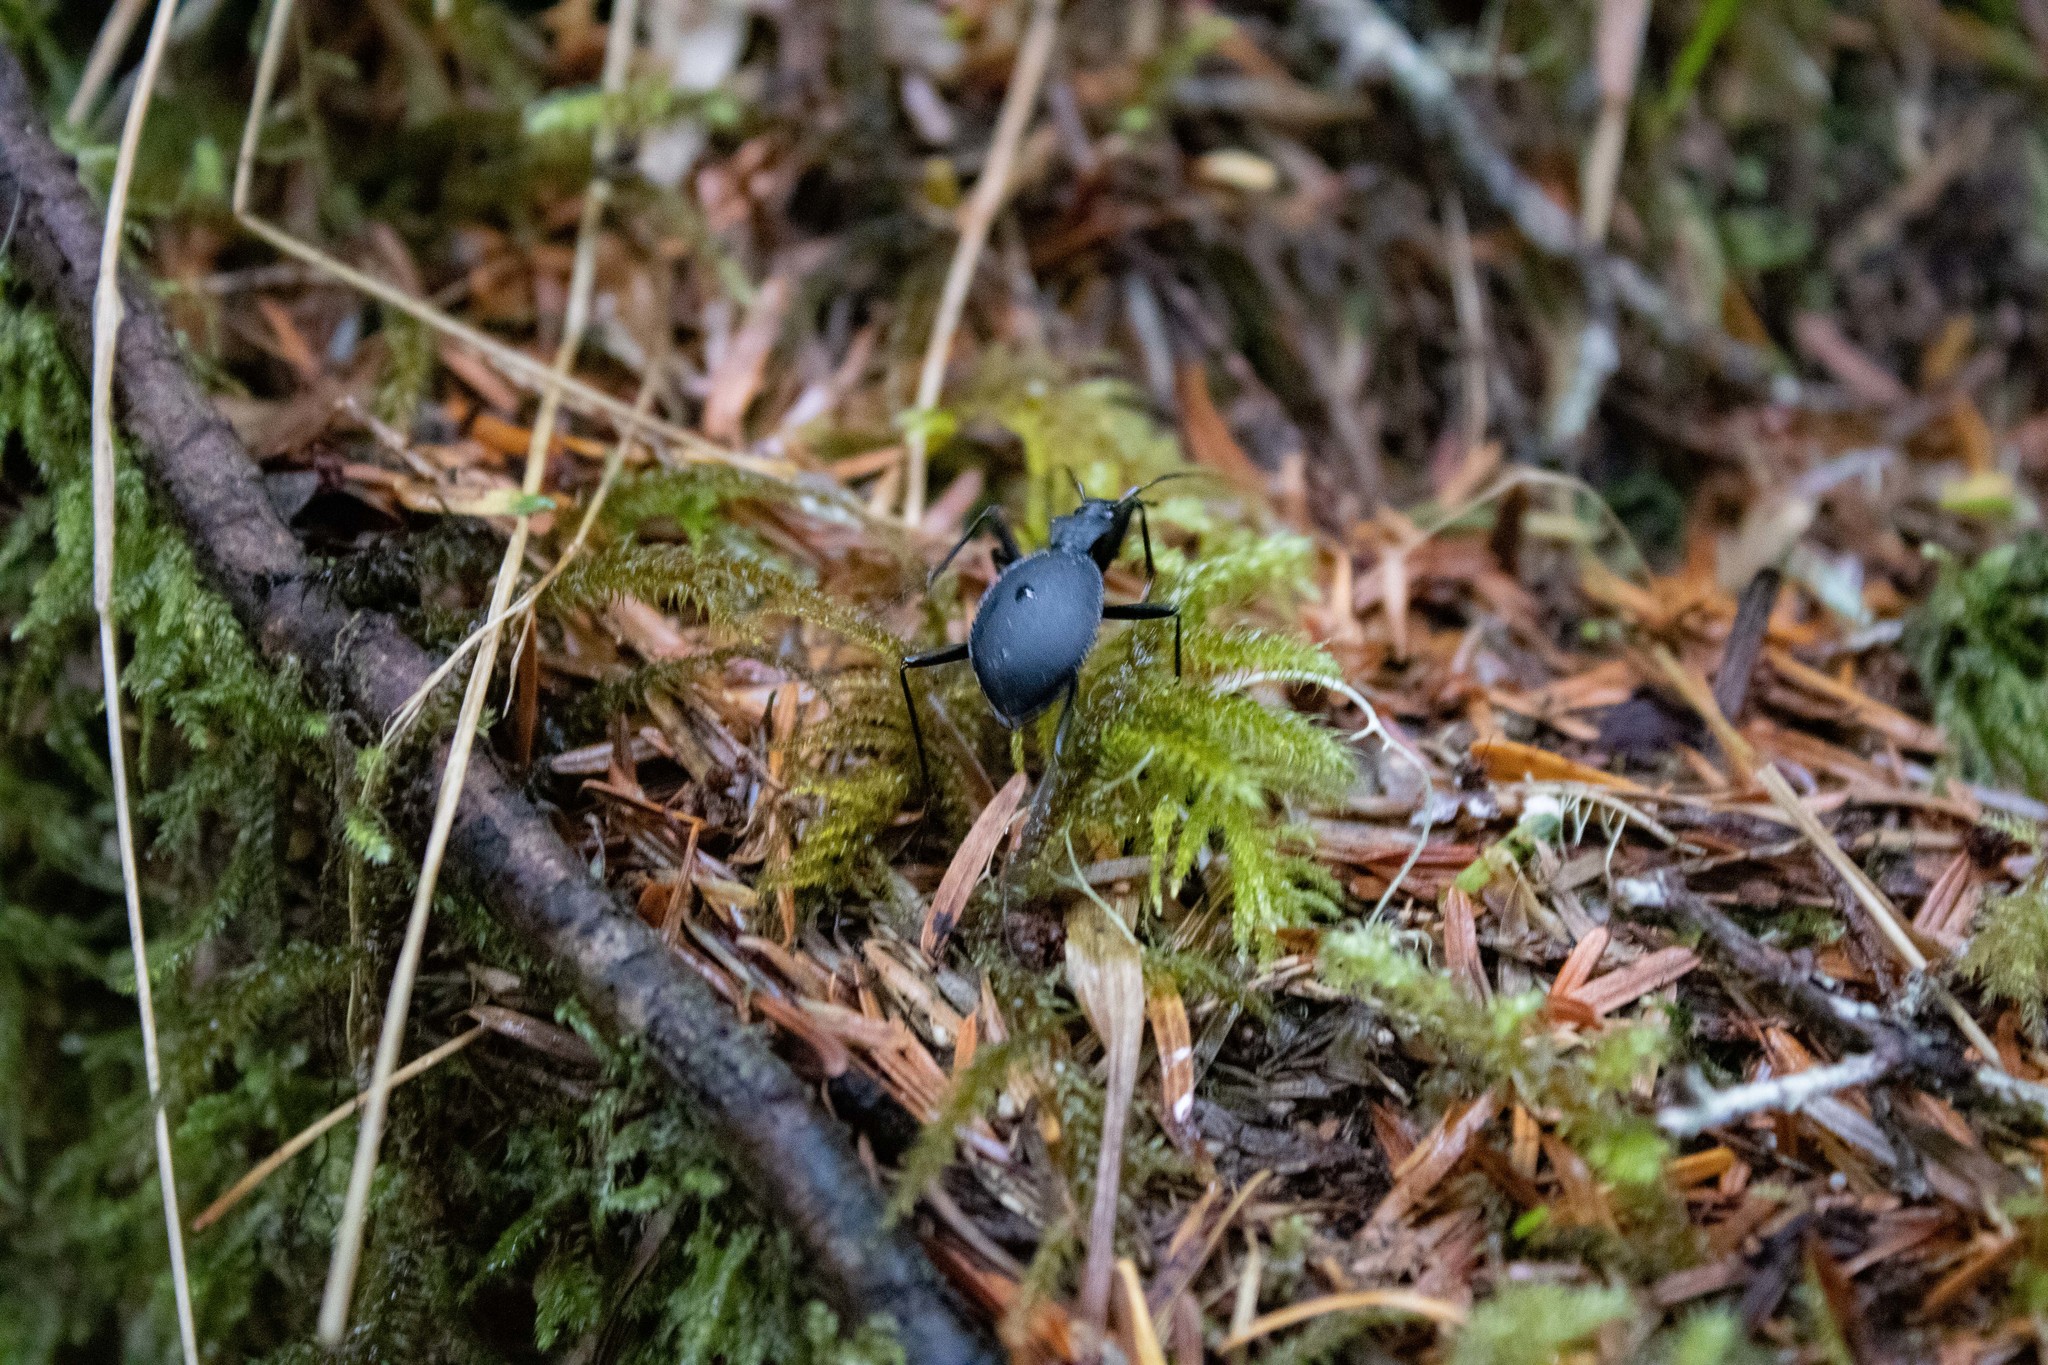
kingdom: Animalia
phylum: Arthropoda
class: Insecta
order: Coleoptera
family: Carabidae
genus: Scaphinotus
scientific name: Scaphinotus angusticollis
